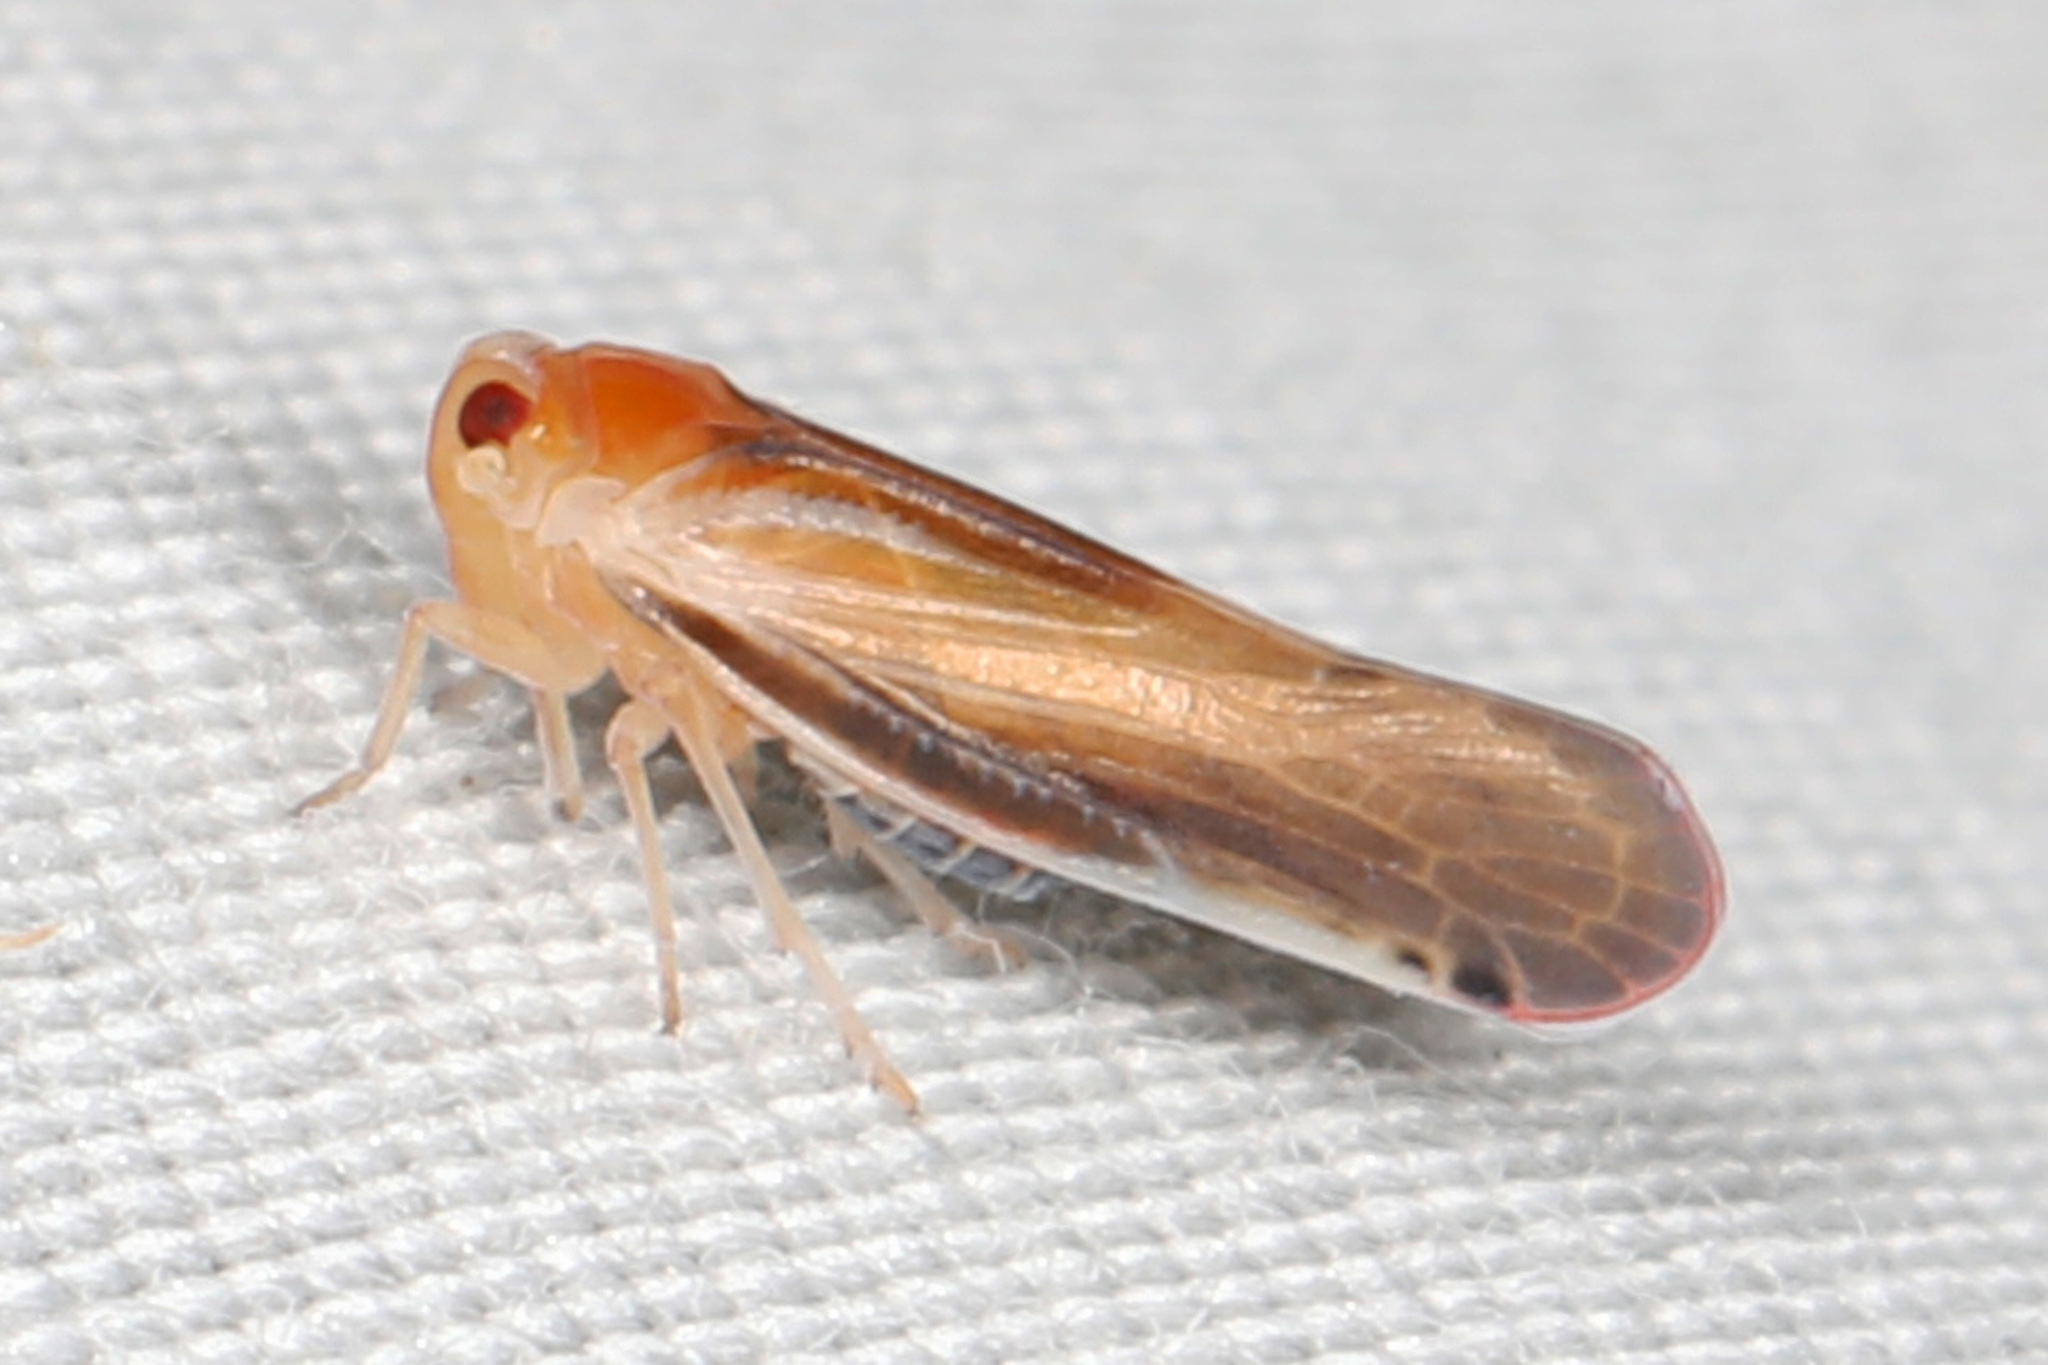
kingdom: Animalia
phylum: Arthropoda
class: Insecta
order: Hemiptera
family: Derbidae
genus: Omolicna
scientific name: Omolicna uhleri
